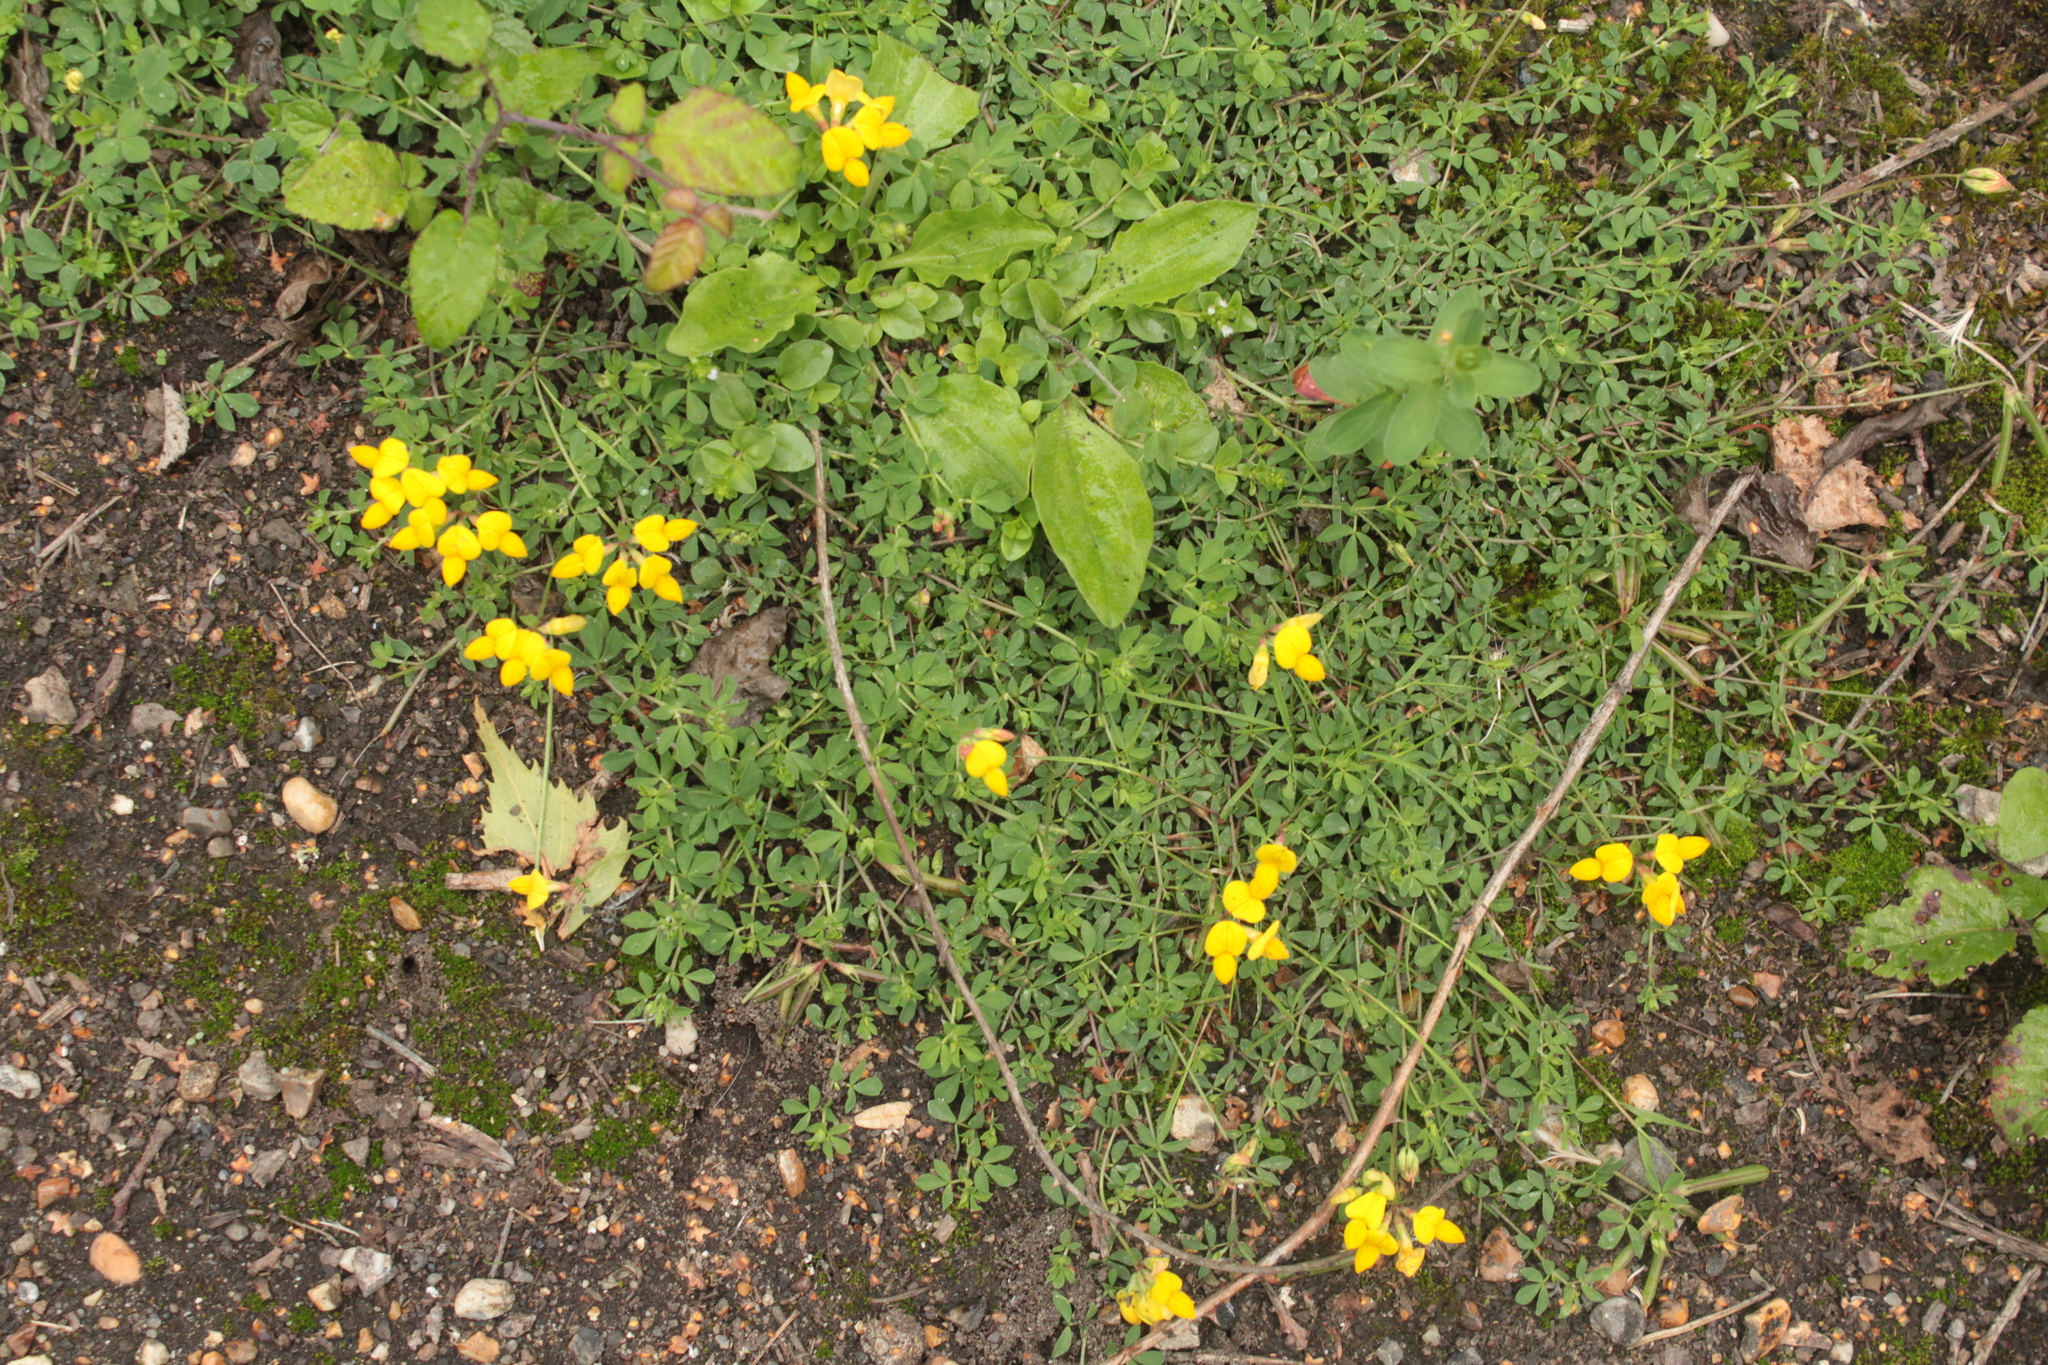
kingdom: Plantae
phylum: Tracheophyta
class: Magnoliopsida
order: Fabales
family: Fabaceae
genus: Lotus
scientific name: Lotus corniculatus
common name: Common bird's-foot-trefoil
